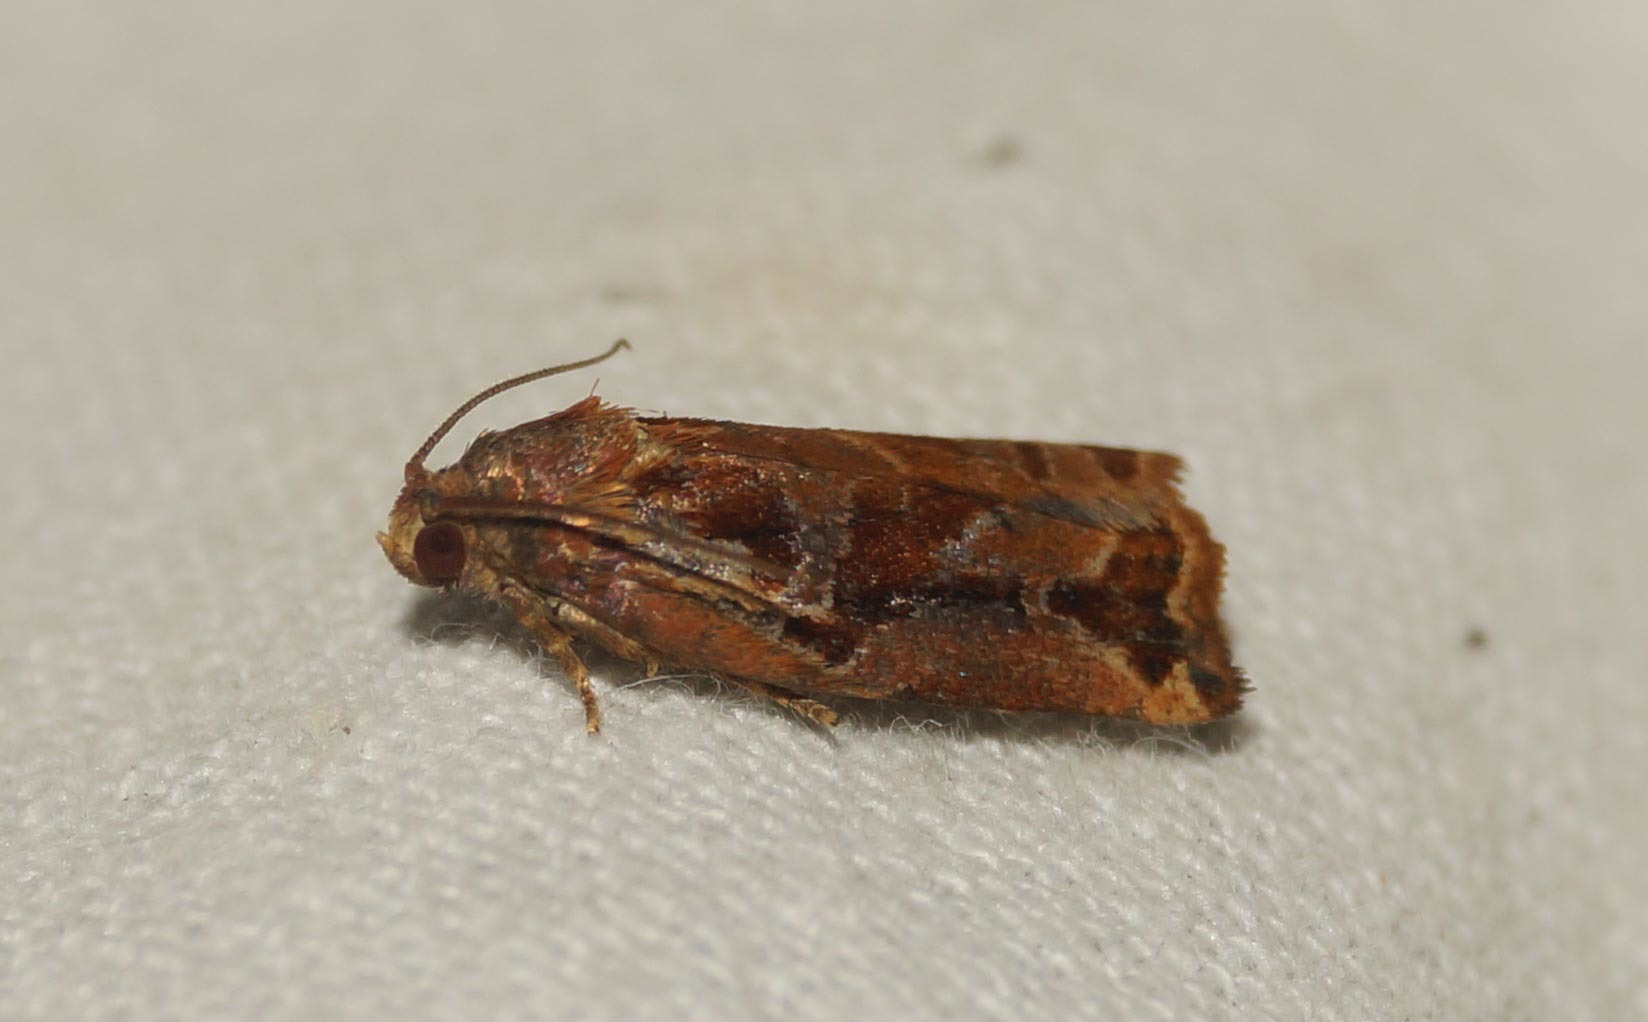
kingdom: Animalia
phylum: Arthropoda
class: Insecta
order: Lepidoptera
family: Tortricidae
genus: Archips
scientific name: Archips oporana
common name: Sprice tortrix moth
